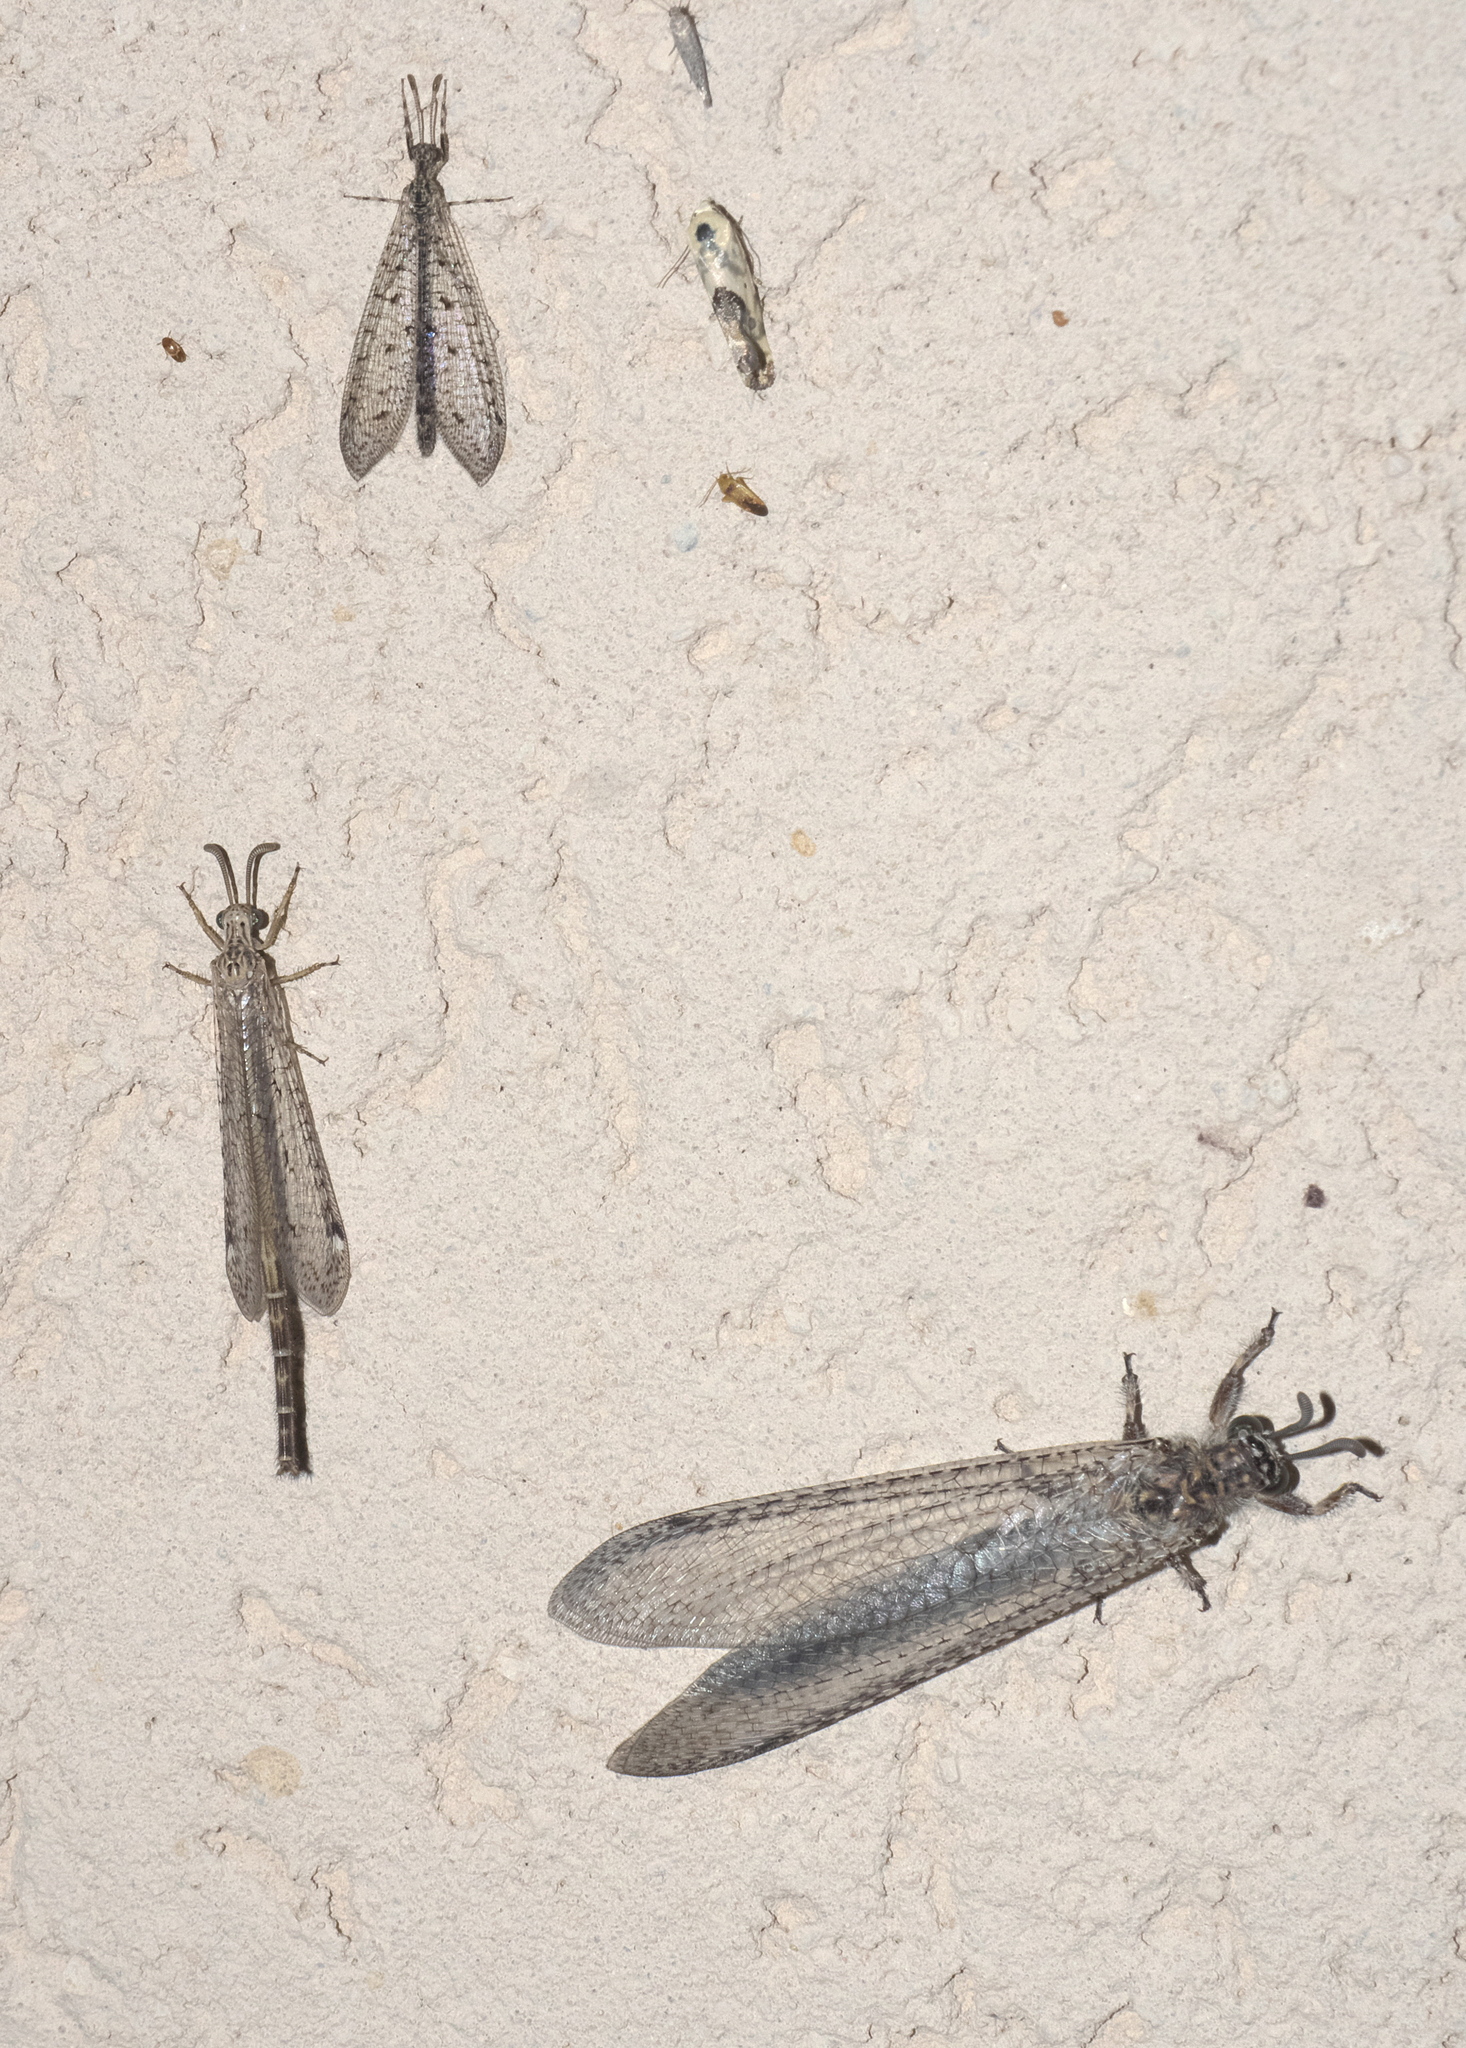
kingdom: Animalia
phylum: Arthropoda
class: Insecta
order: Neuroptera
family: Myrmeleontidae
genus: Paranthaclisis
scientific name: Paranthaclisis hageni
